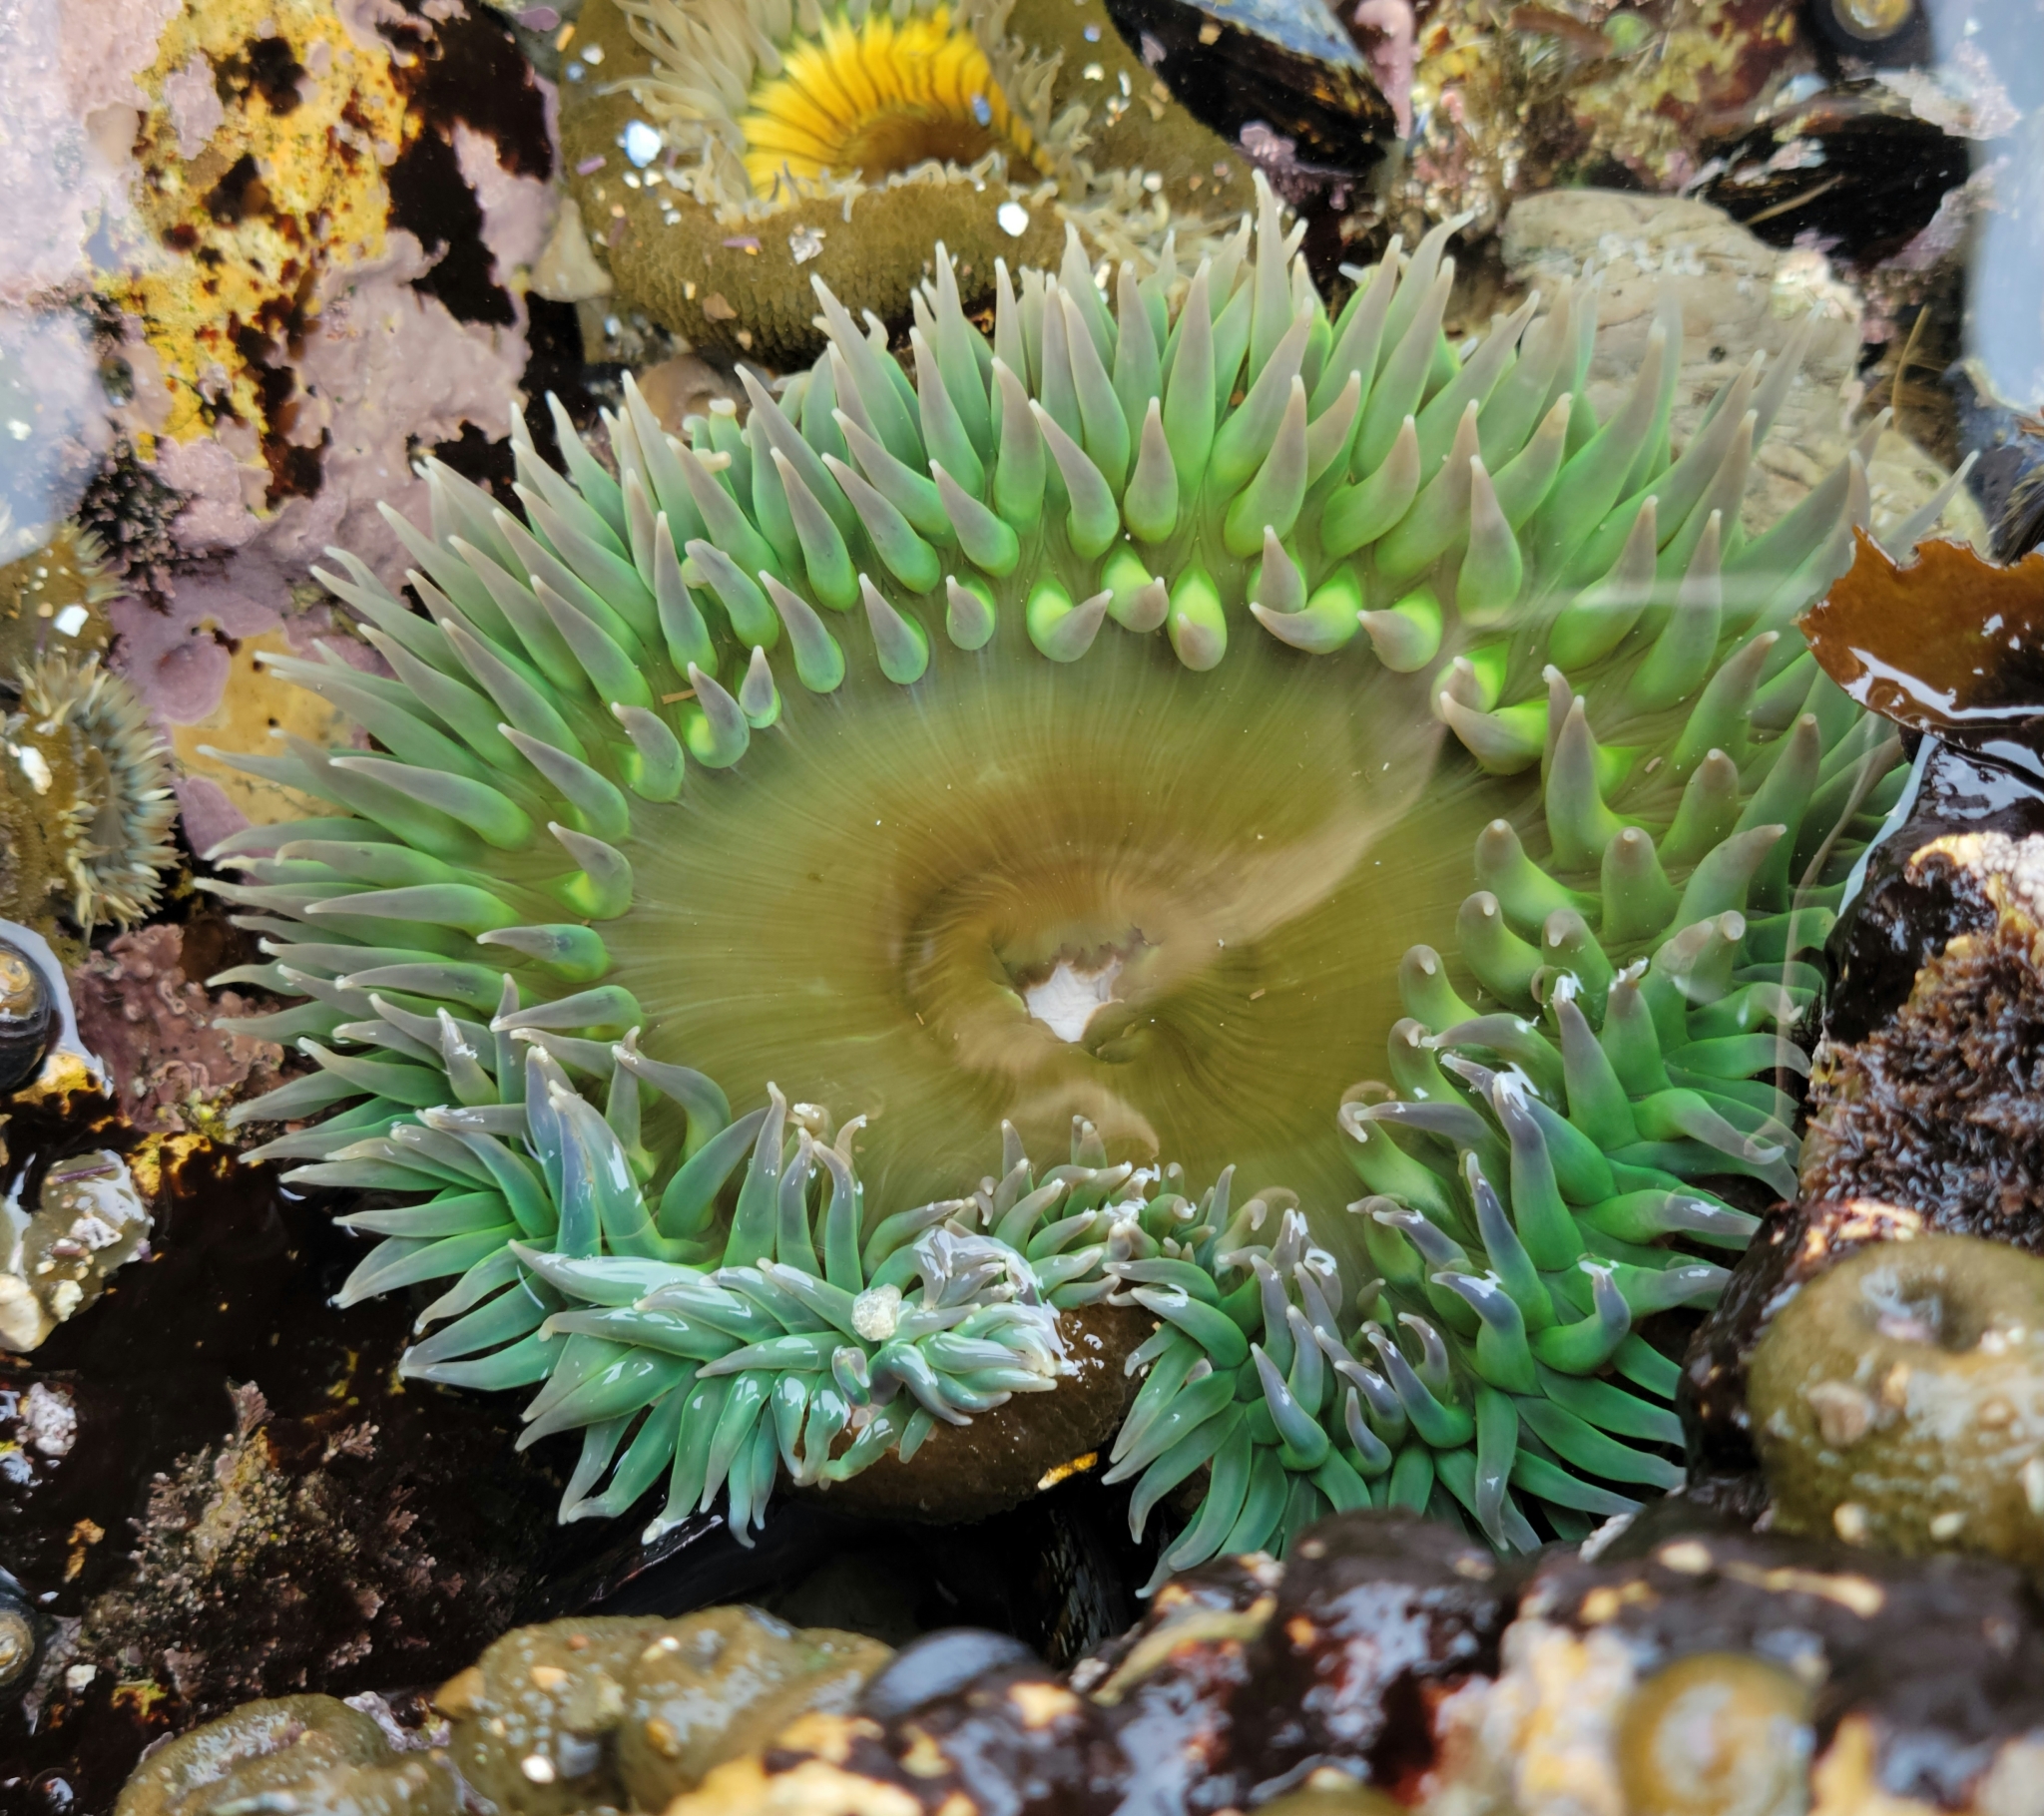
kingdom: Animalia
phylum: Cnidaria
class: Anthozoa
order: Actiniaria
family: Actiniidae
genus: Anthopleura
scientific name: Anthopleura xanthogrammica
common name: Giant green anemone
